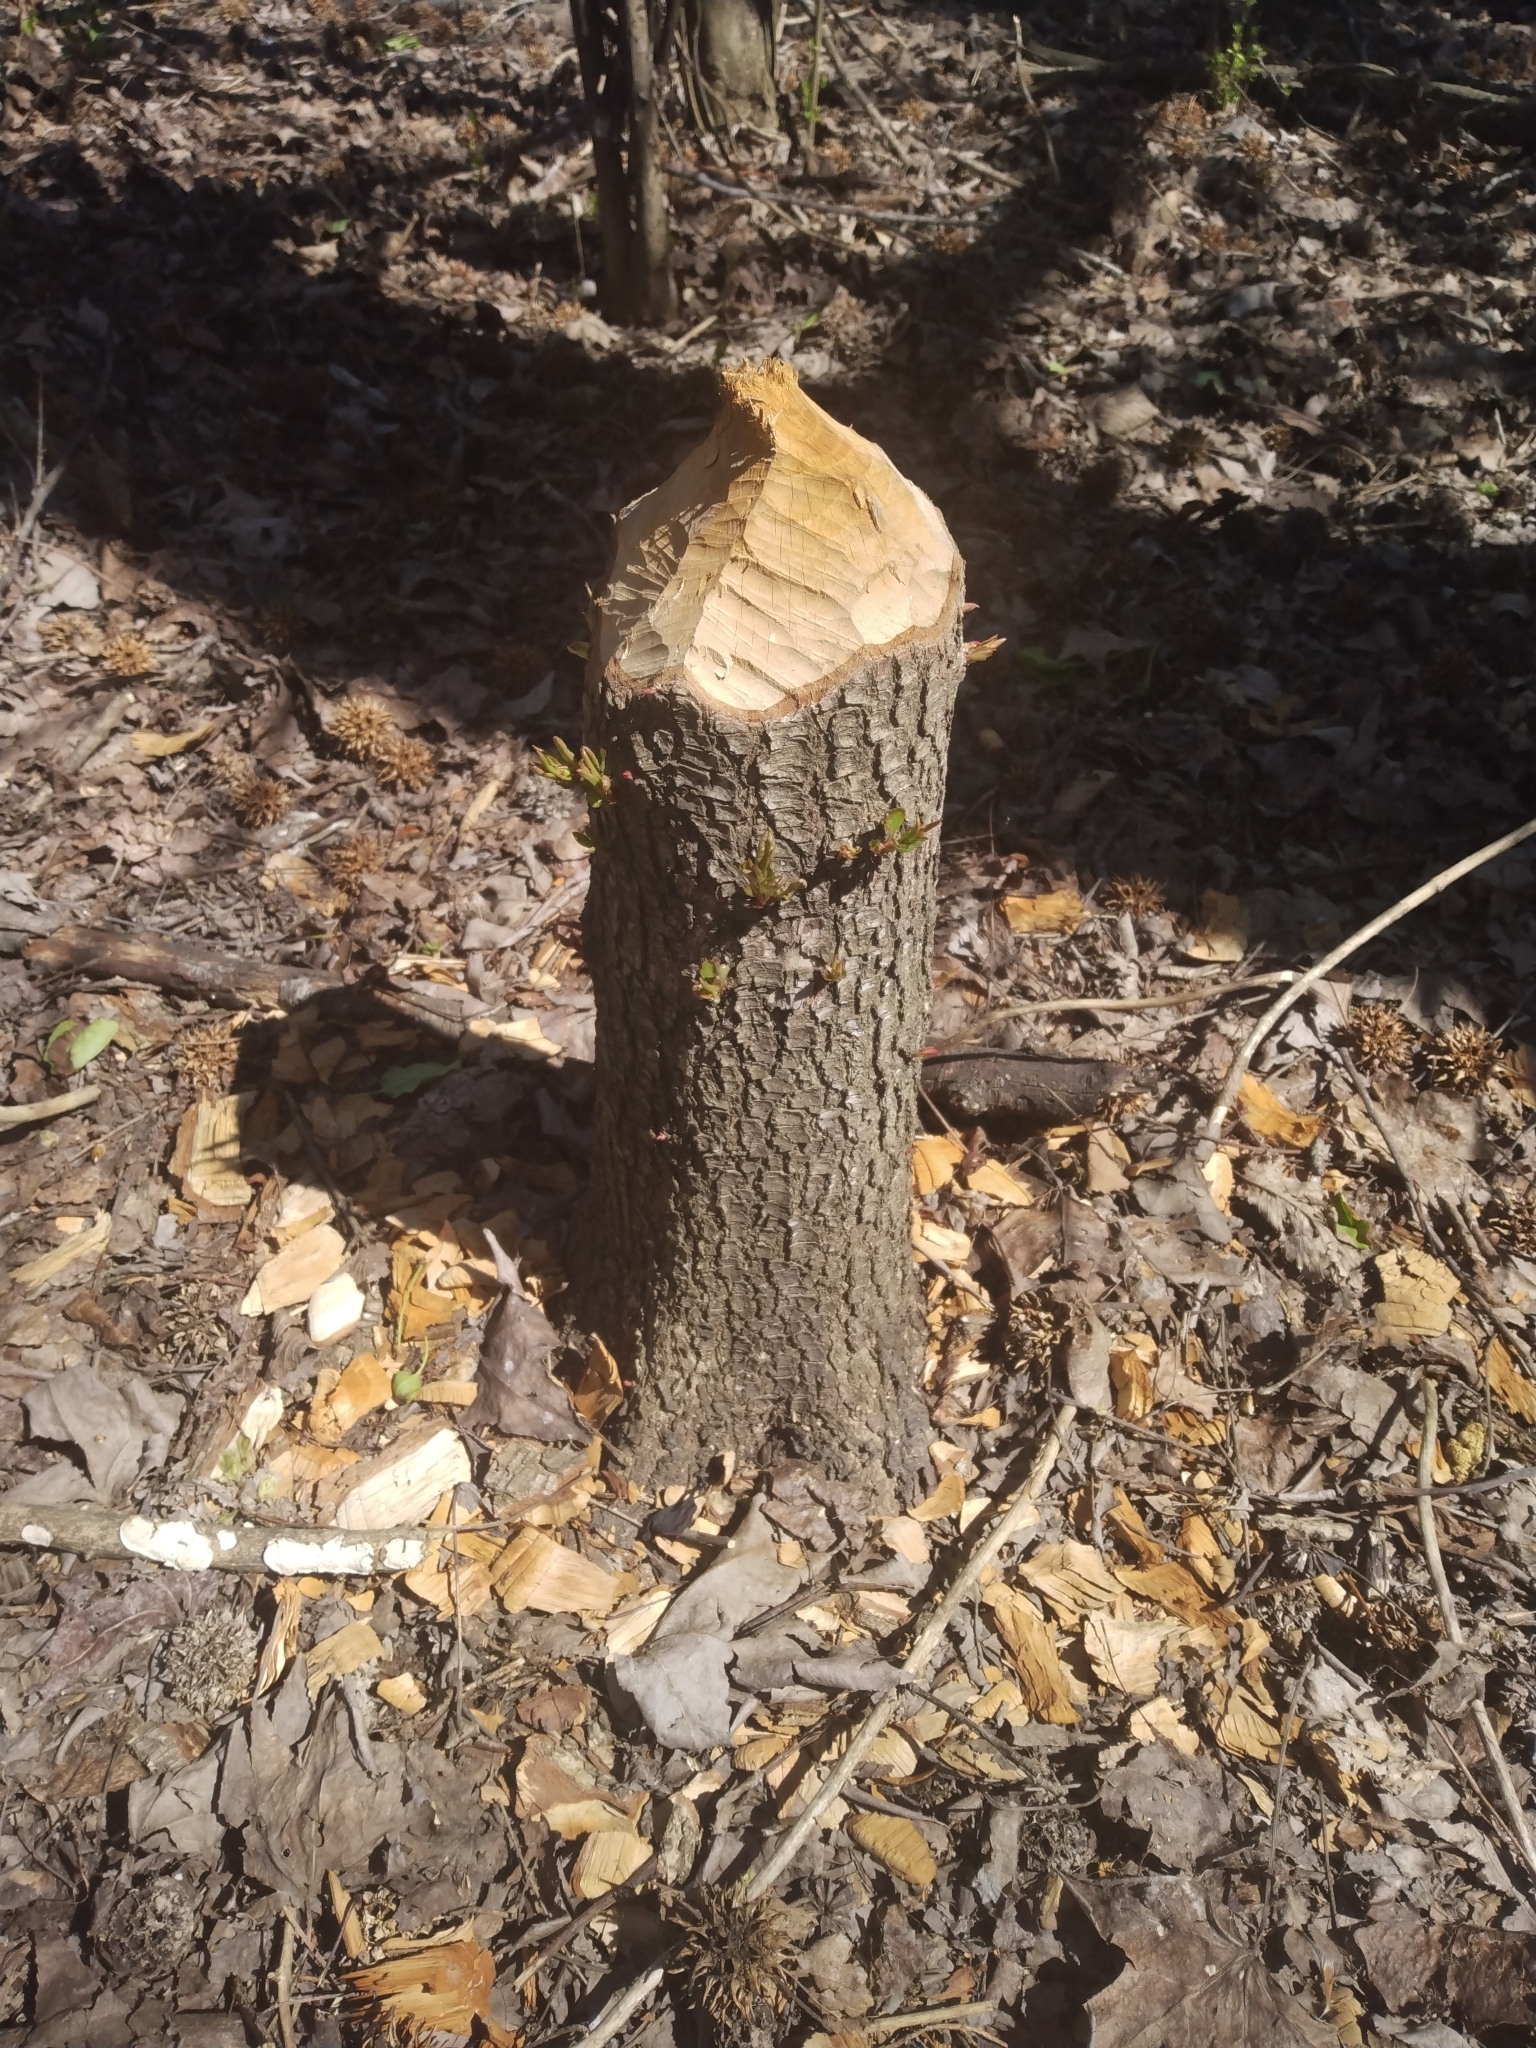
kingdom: Animalia
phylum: Chordata
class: Mammalia
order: Rodentia
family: Castoridae
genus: Castor
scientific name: Castor canadensis
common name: American beaver
